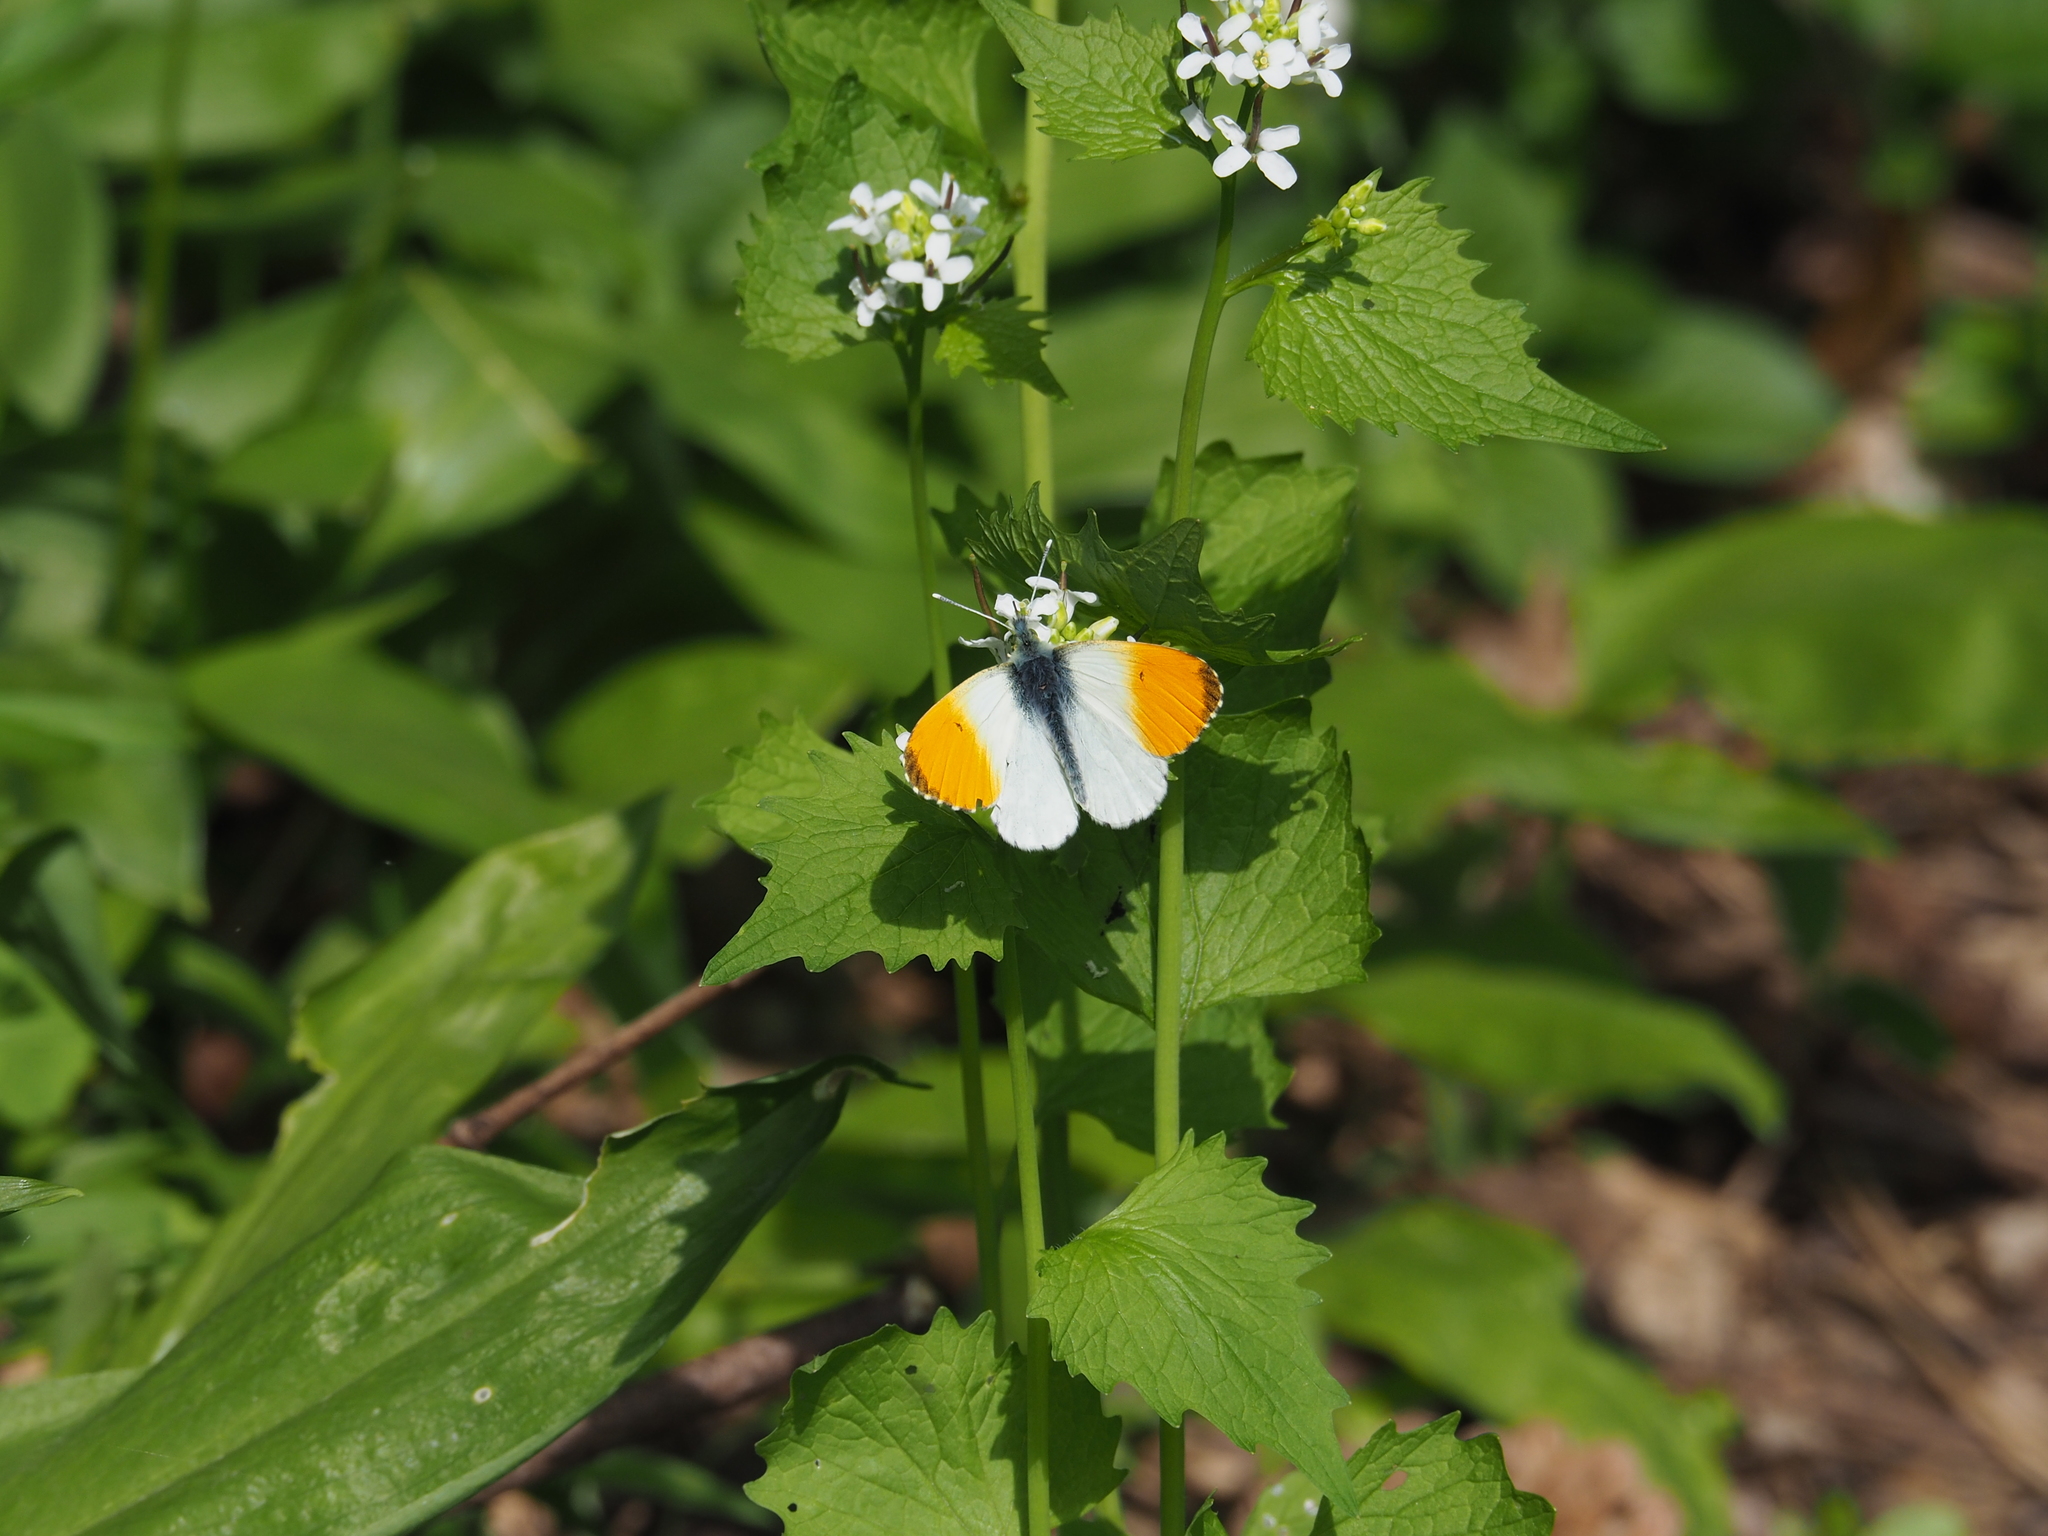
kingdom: Animalia
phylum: Arthropoda
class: Insecta
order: Lepidoptera
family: Pieridae
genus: Anthocharis
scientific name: Anthocharis cardamines
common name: Orange-tip
